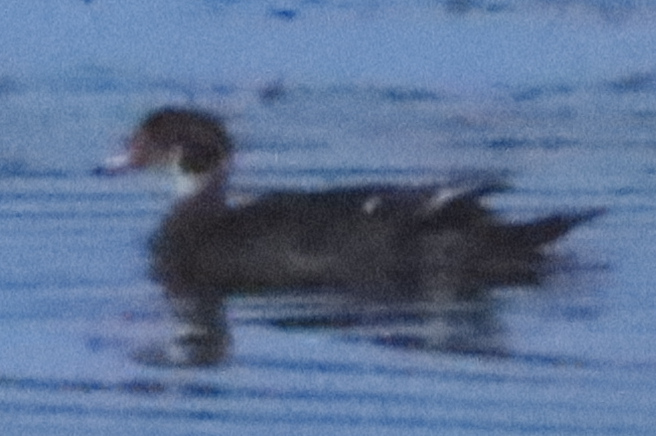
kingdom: Animalia
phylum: Chordata
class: Aves
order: Anseriformes
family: Anatidae
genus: Aix
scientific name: Aix sponsa
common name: Wood duck
